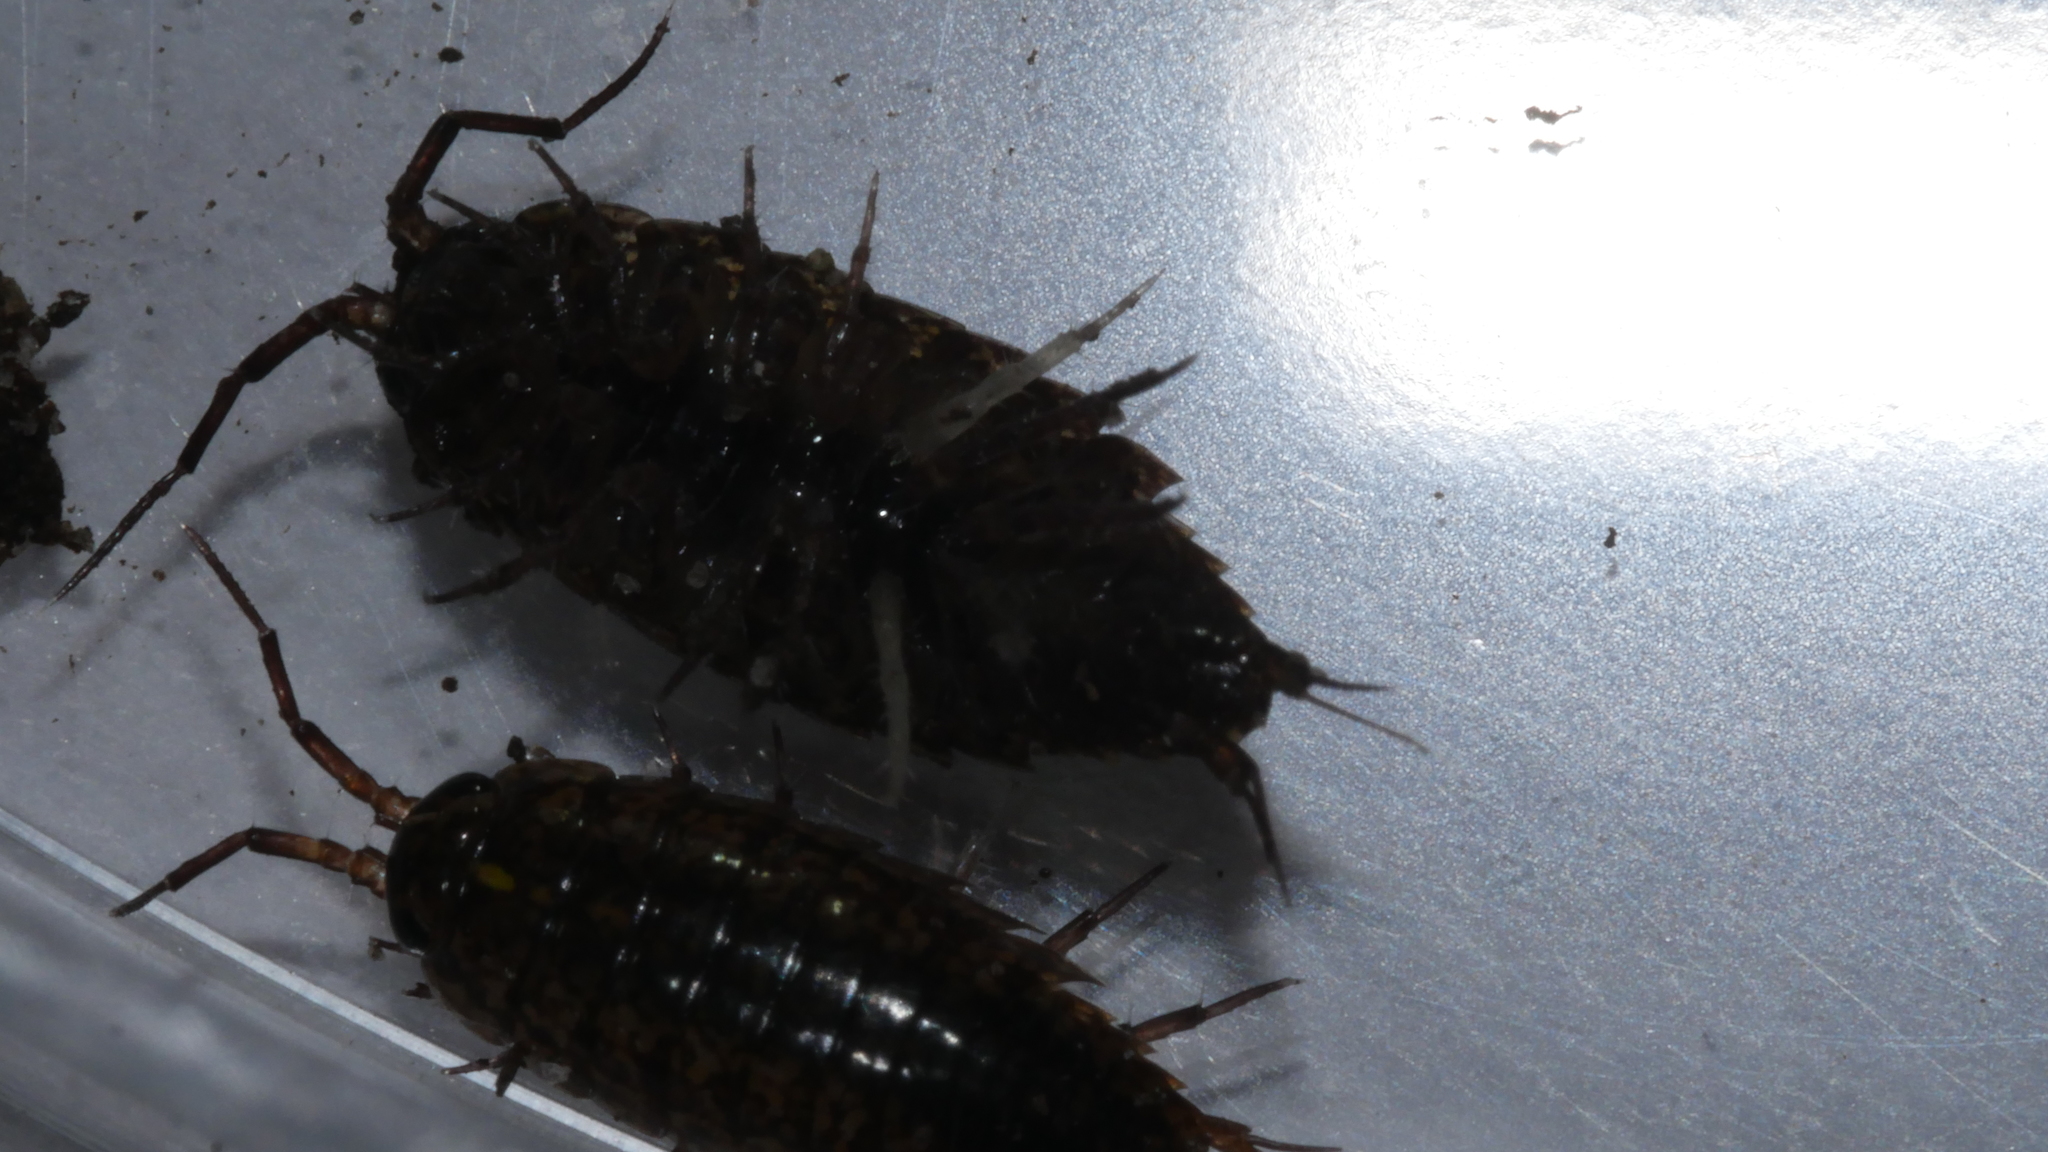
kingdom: Animalia
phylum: Arthropoda
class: Malacostraca
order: Isopoda
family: Ligiidae
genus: Ligidium
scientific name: Ligidium elrodii
